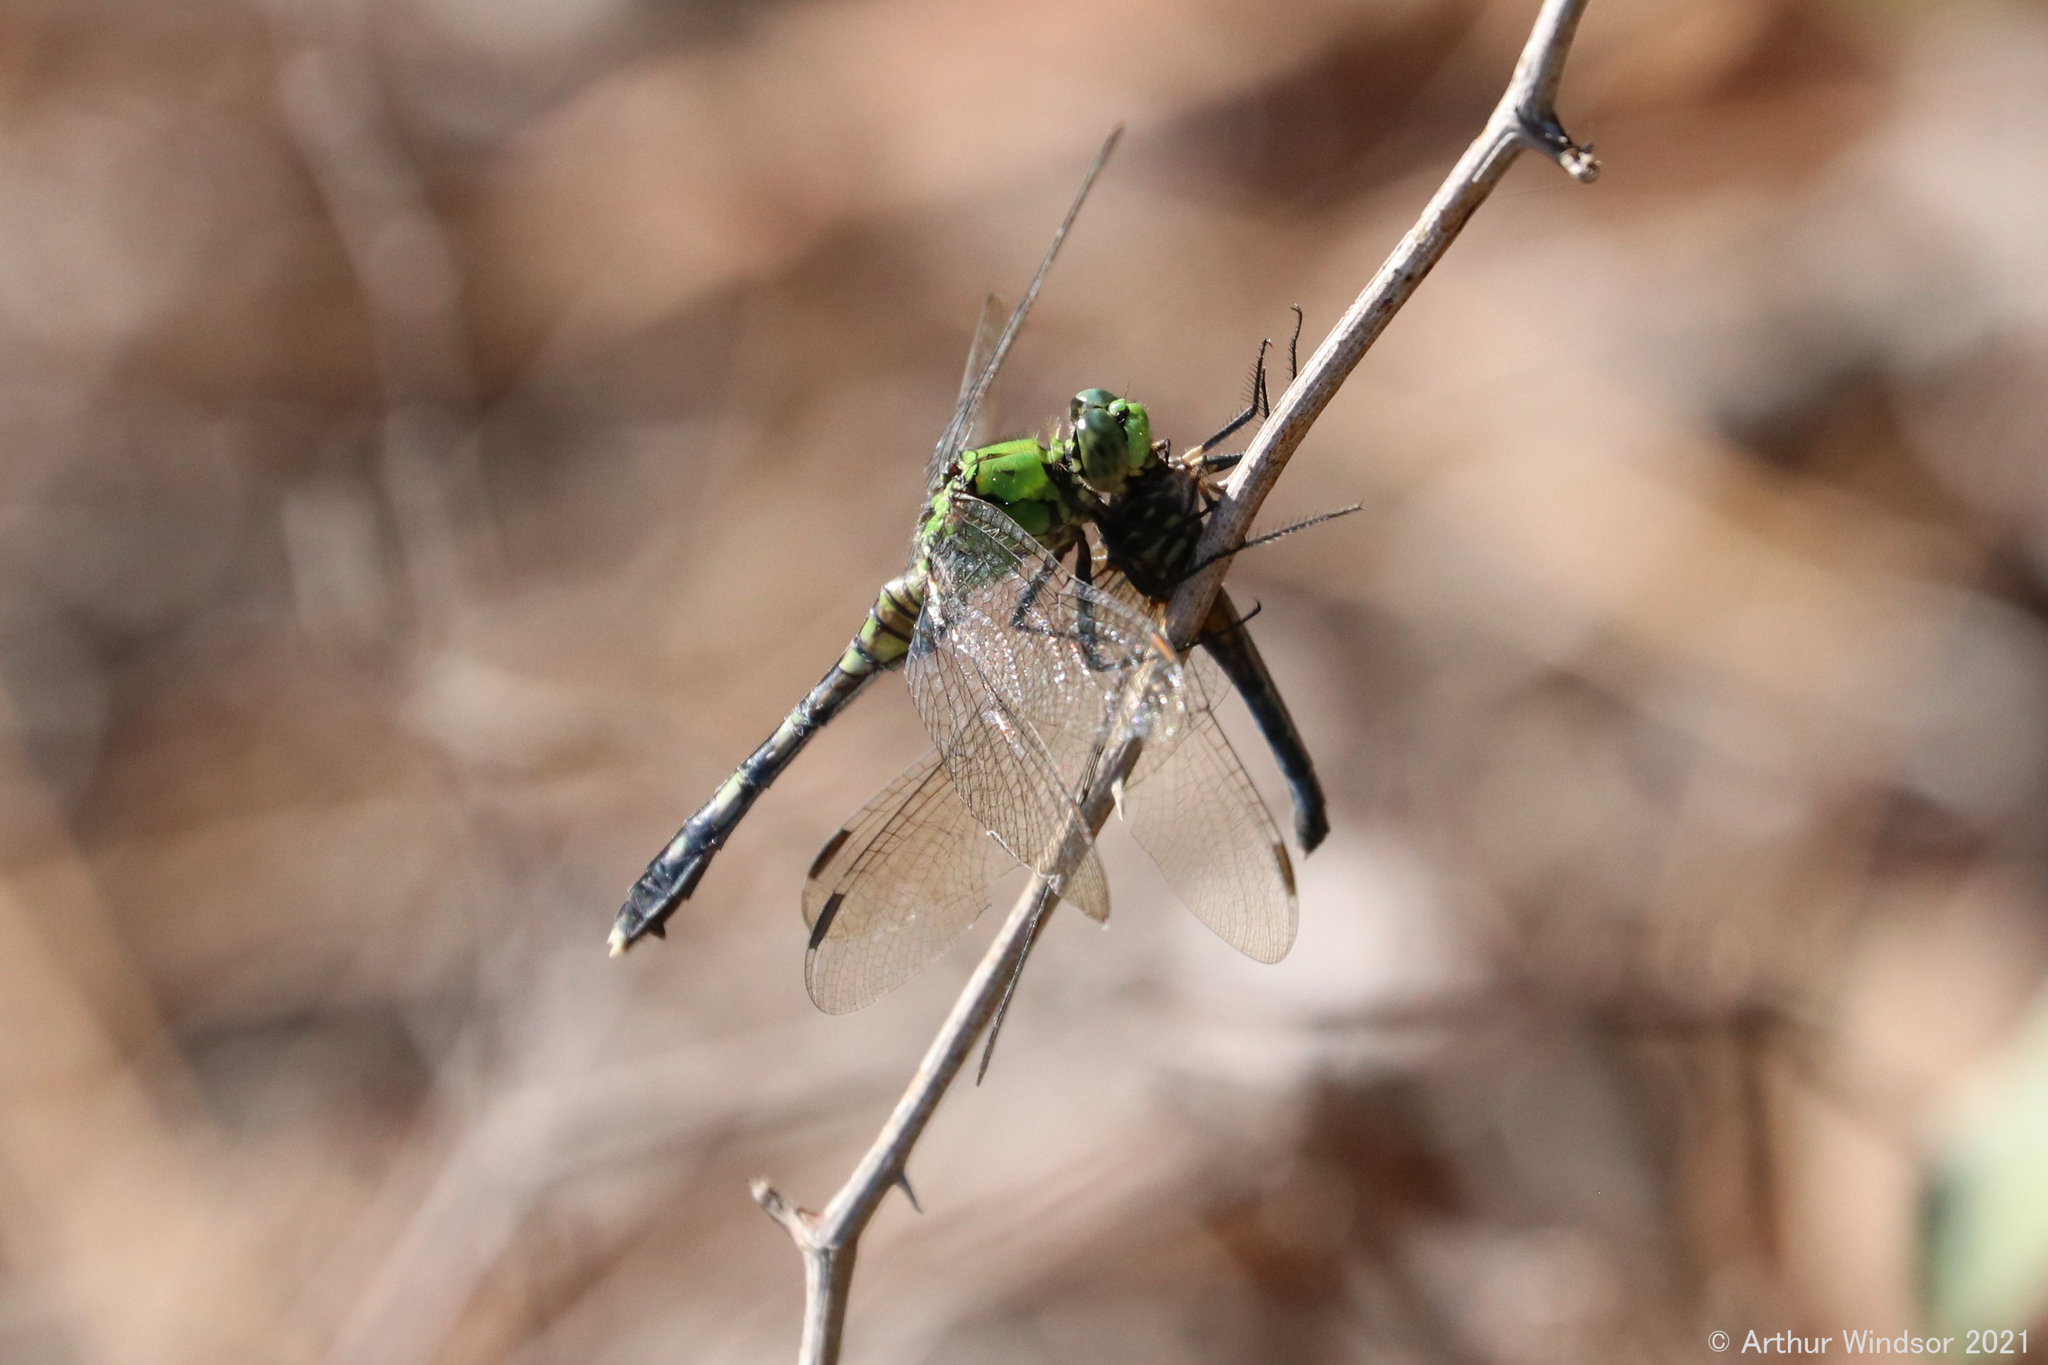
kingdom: Animalia
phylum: Arthropoda
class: Insecta
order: Odonata
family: Libellulidae
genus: Erythemis
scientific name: Erythemis simplicicollis
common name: Eastern pondhawk
